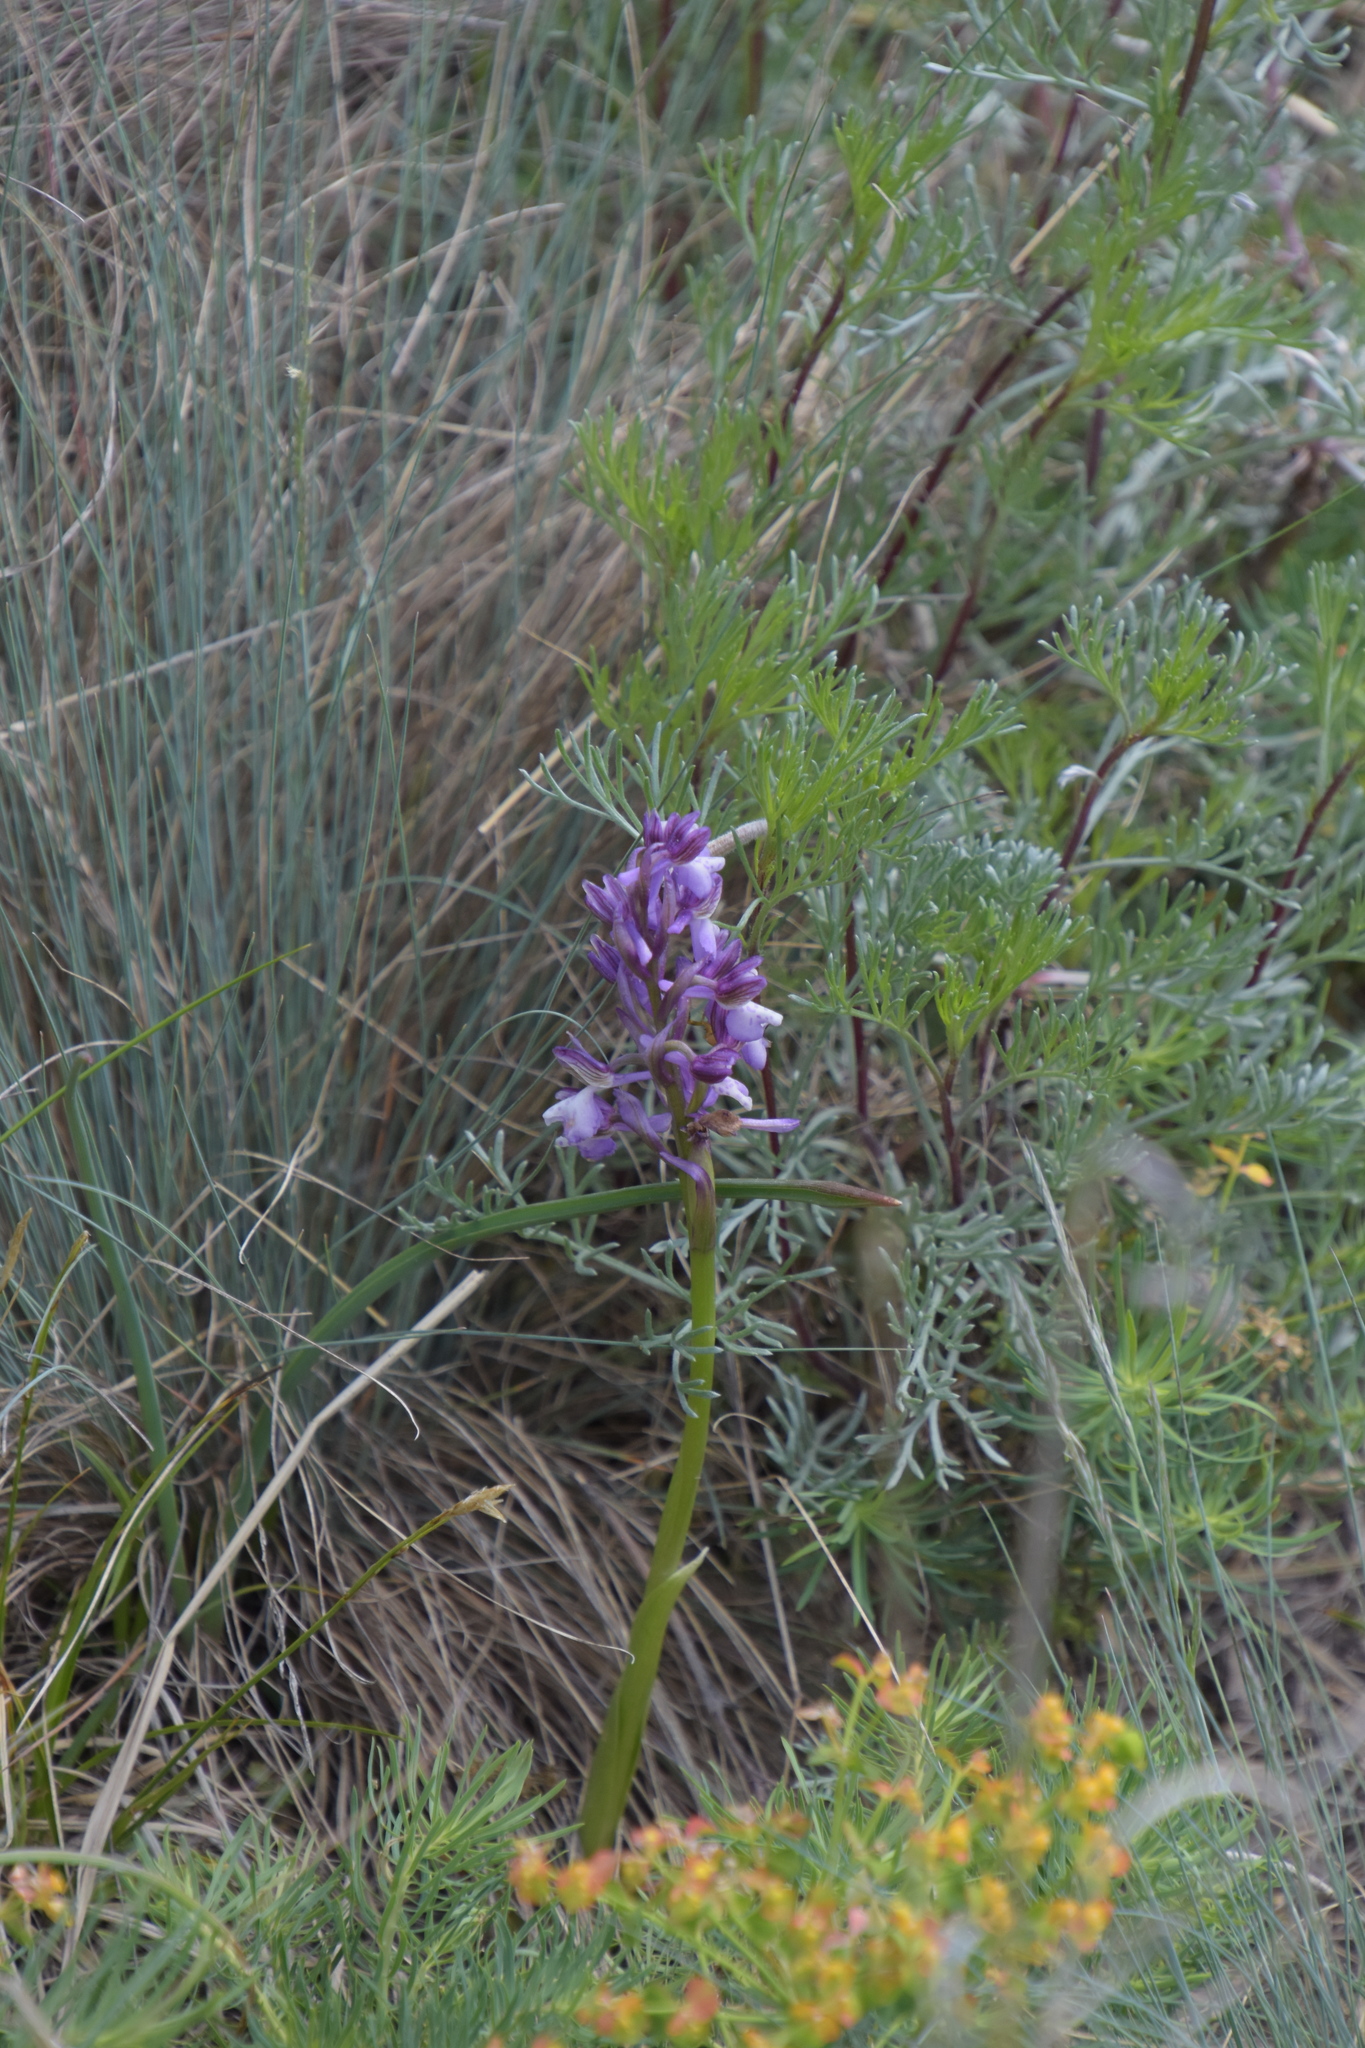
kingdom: Plantae
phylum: Tracheophyta
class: Liliopsida
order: Asparagales
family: Orchidaceae
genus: Anacamptis
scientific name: Anacamptis morio
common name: Green-winged orchid
